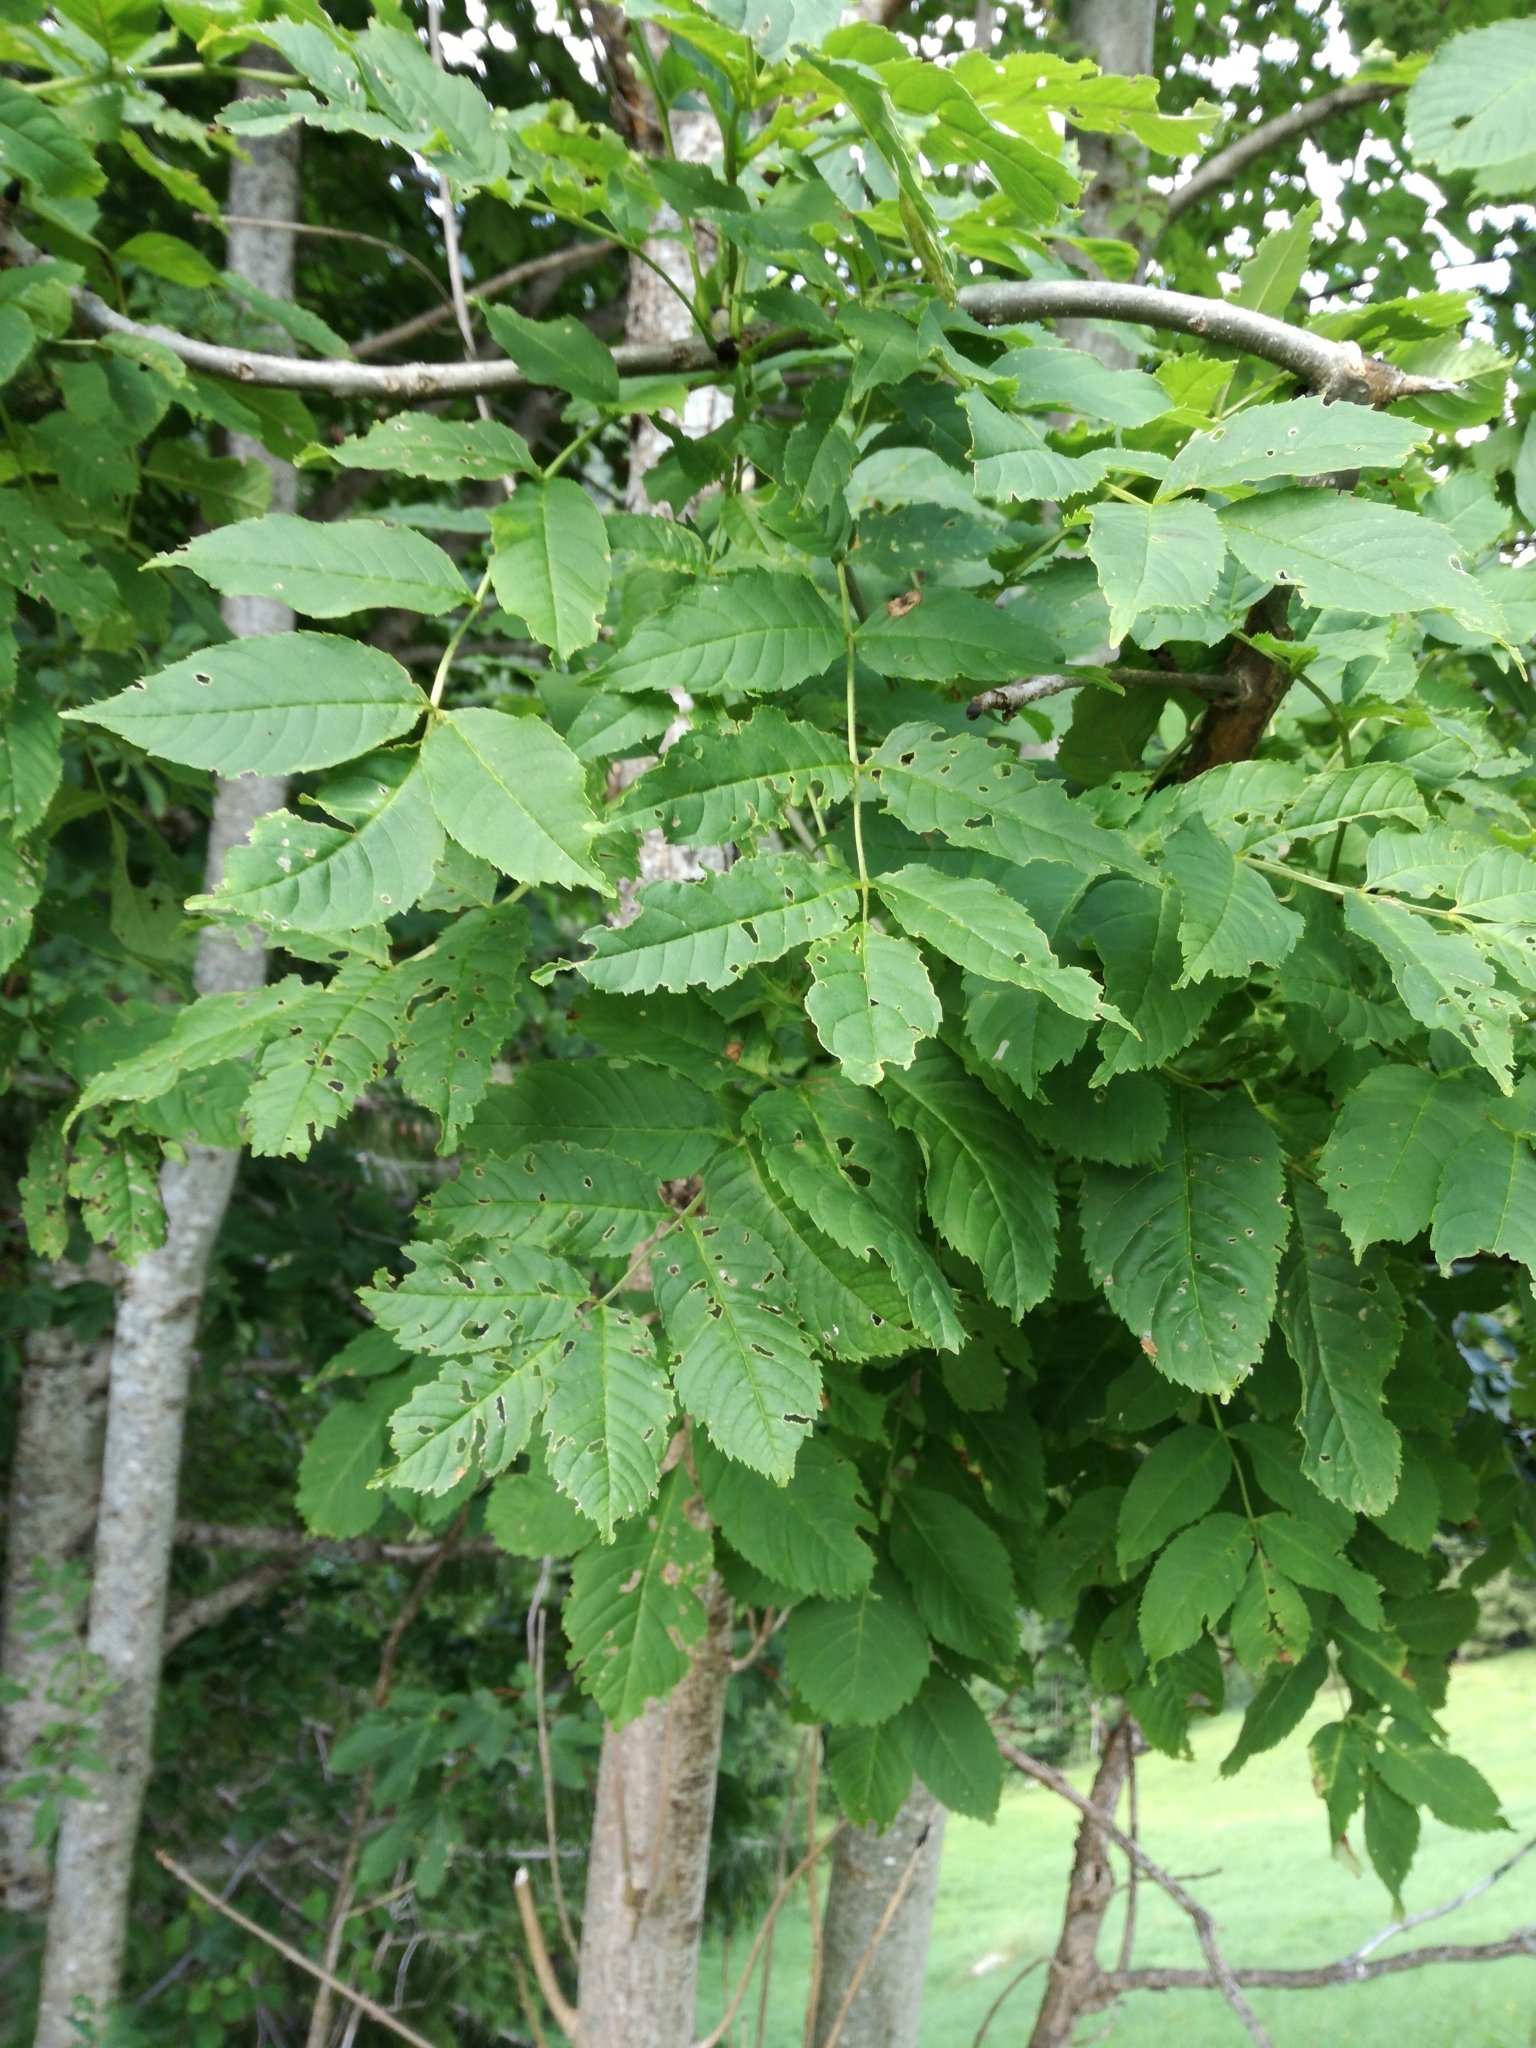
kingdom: Plantae
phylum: Tracheophyta
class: Magnoliopsida
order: Lamiales
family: Oleaceae
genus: Fraxinus
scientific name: Fraxinus excelsior
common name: European ash
